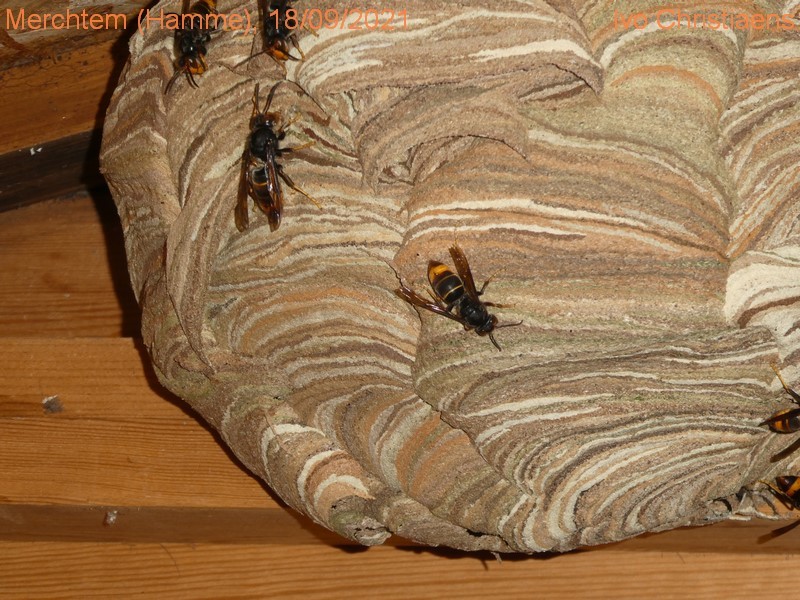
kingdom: Animalia
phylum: Arthropoda
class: Insecta
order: Hymenoptera
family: Vespidae
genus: Vespa
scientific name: Vespa velutina
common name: Asian hornet
